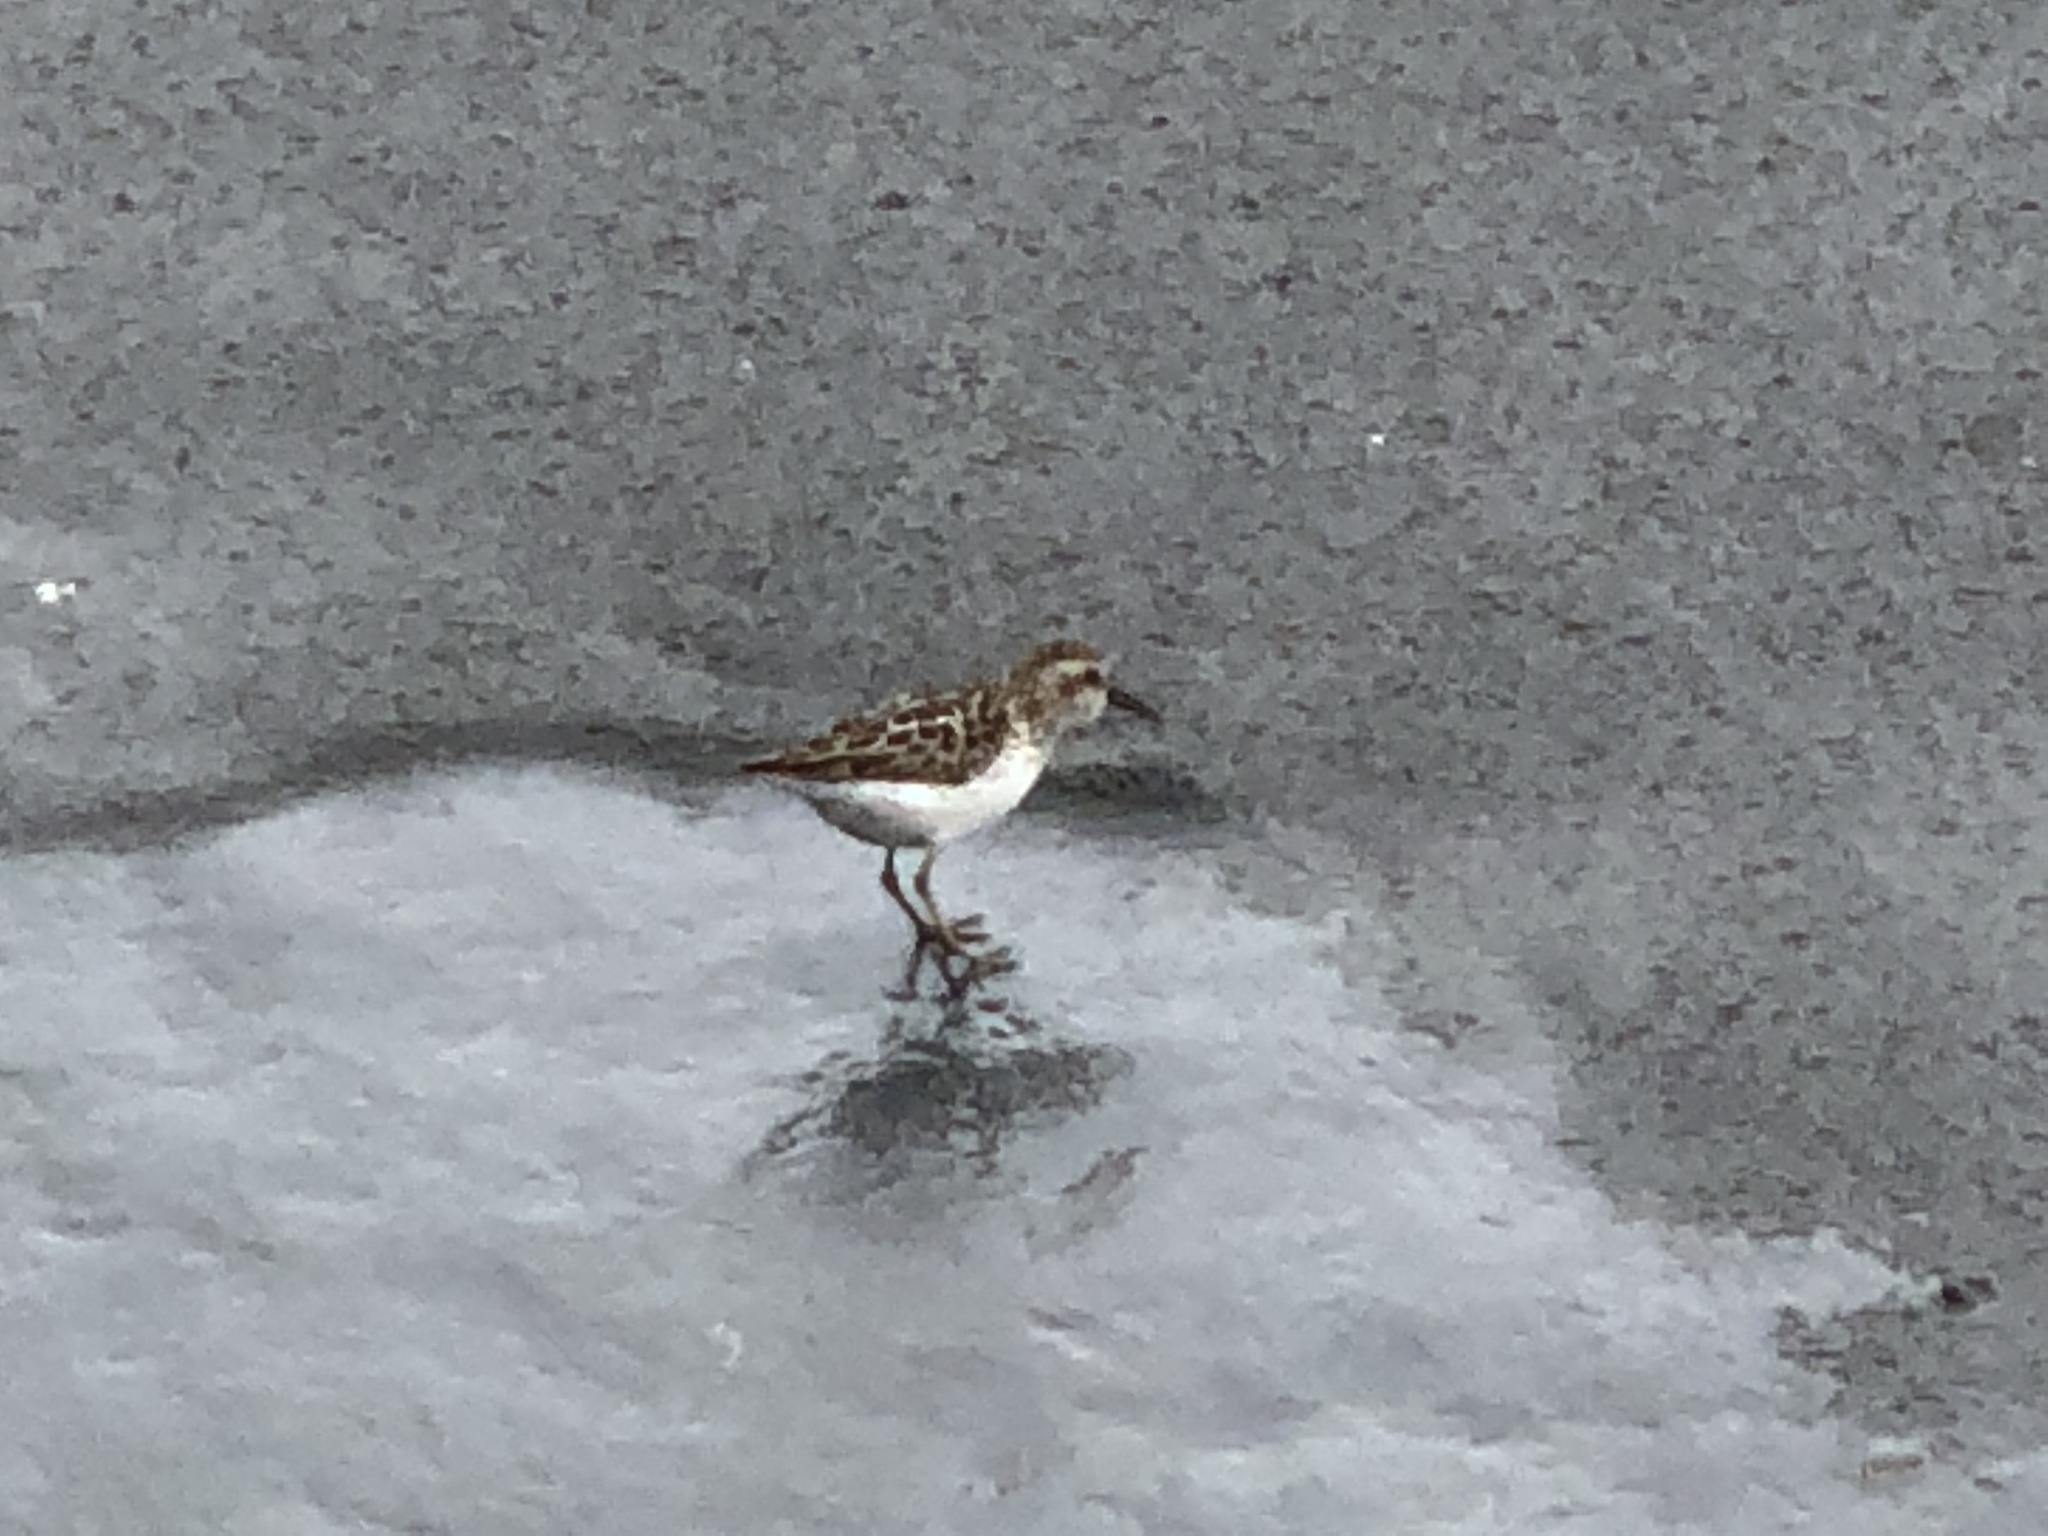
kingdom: Animalia
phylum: Chordata
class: Aves
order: Charadriiformes
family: Scolopacidae
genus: Calidris
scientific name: Calidris minutilla
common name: Least sandpiper
